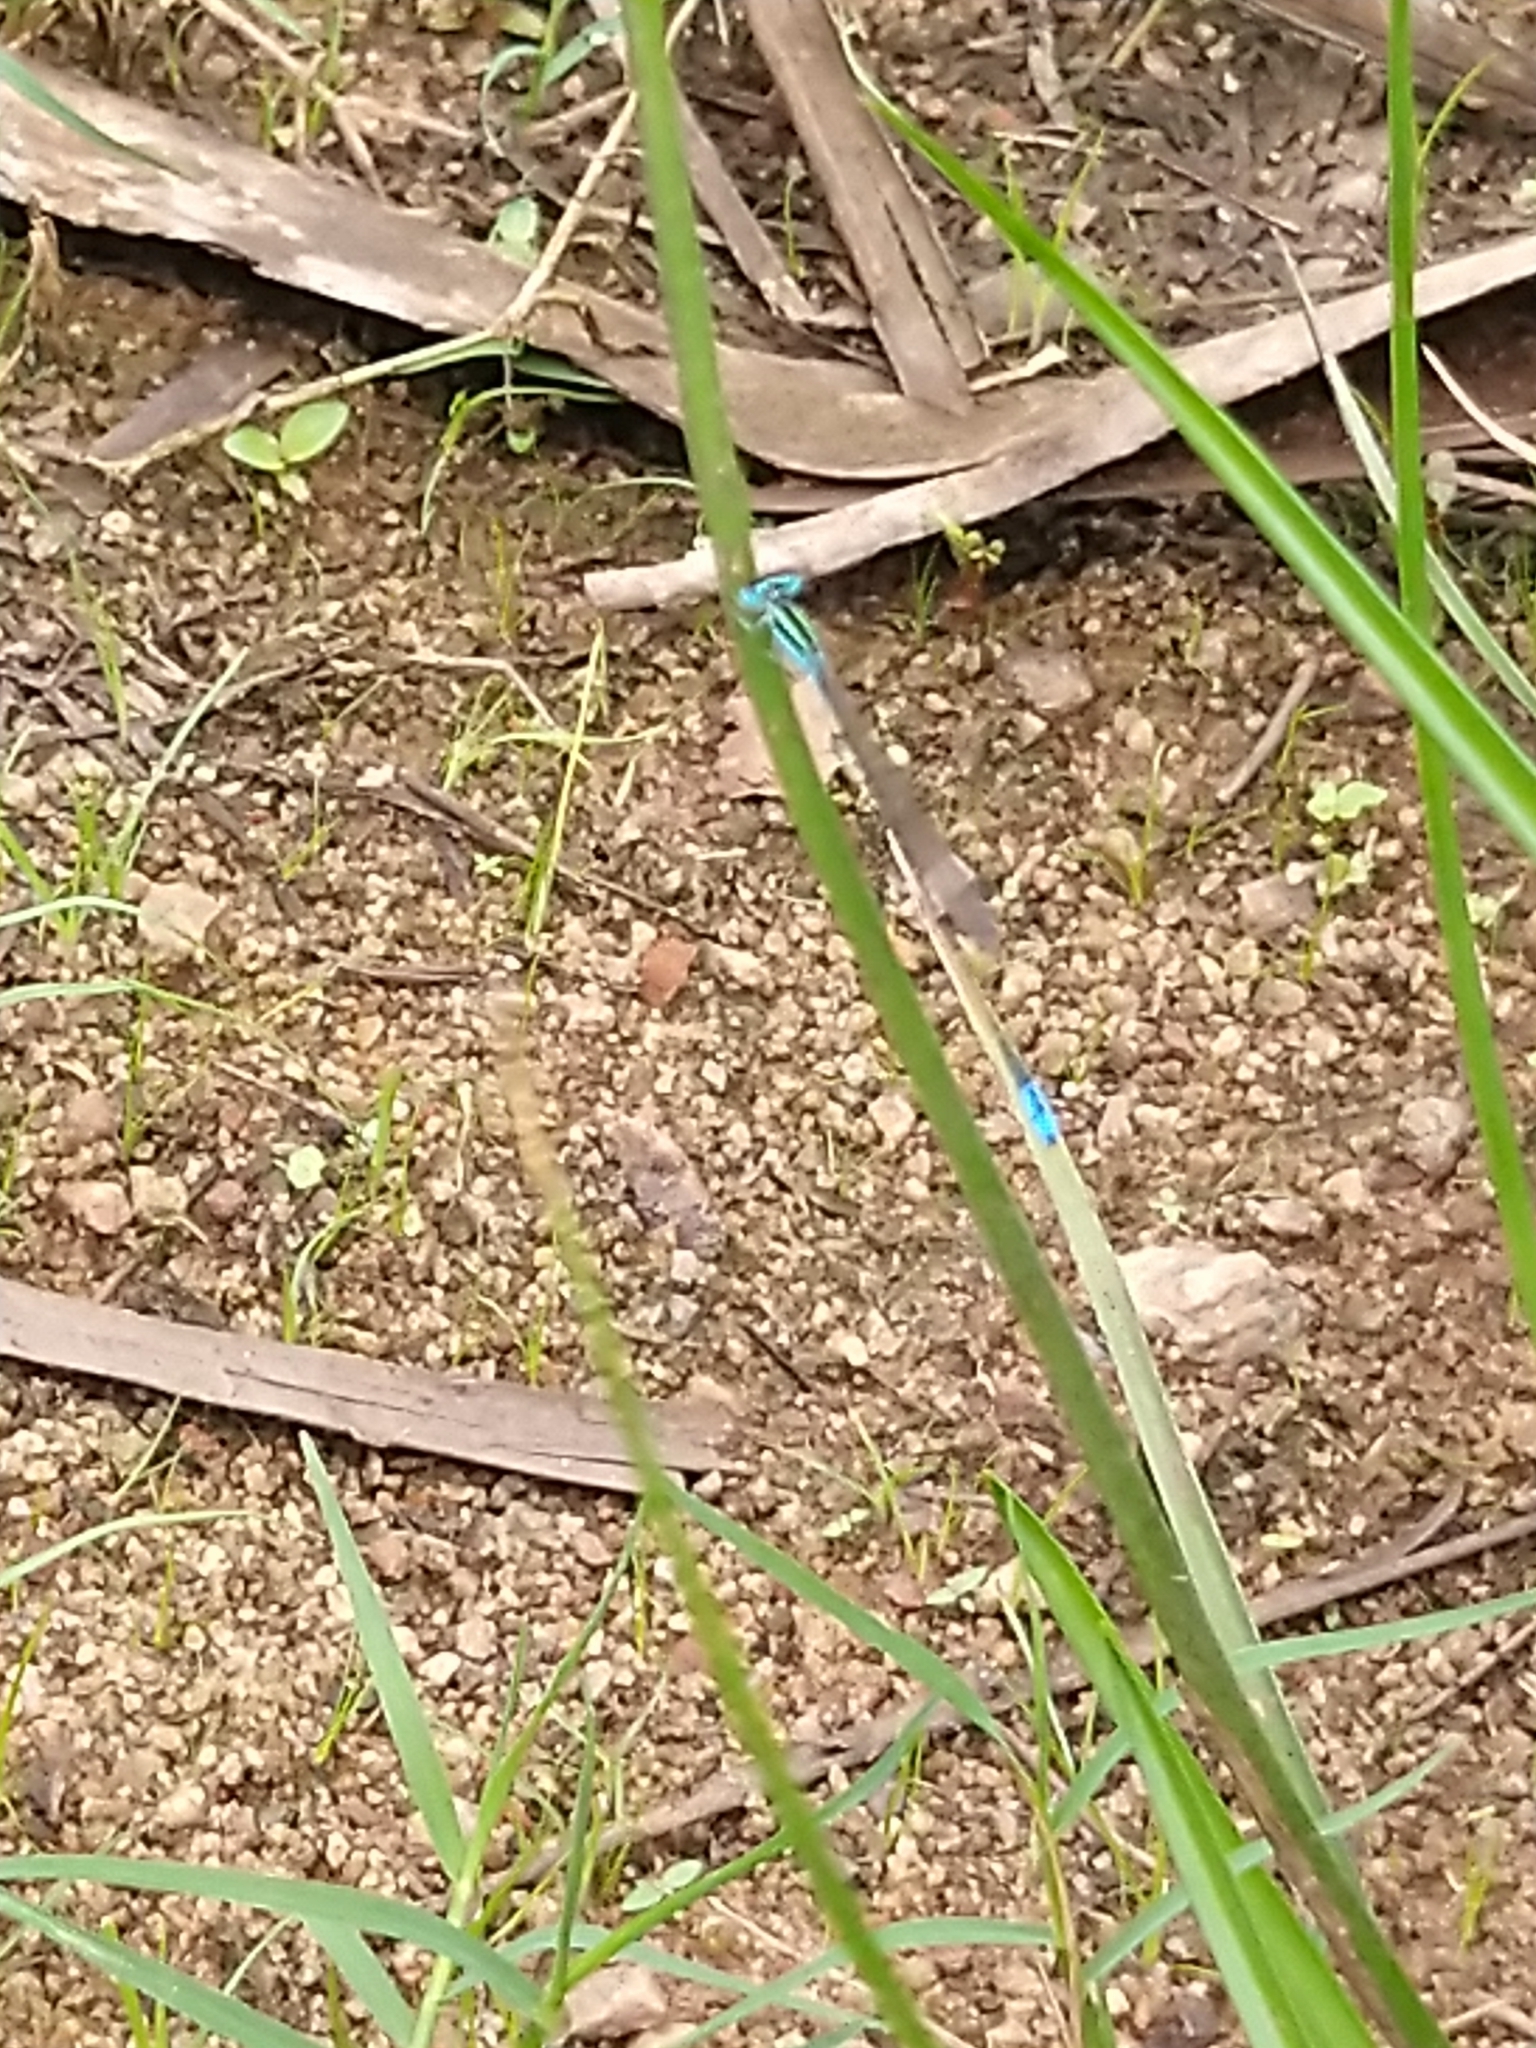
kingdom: Animalia
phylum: Arthropoda
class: Insecta
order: Odonata
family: Coenagrionidae
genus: Aciagrion
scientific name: Aciagrion occidentale
